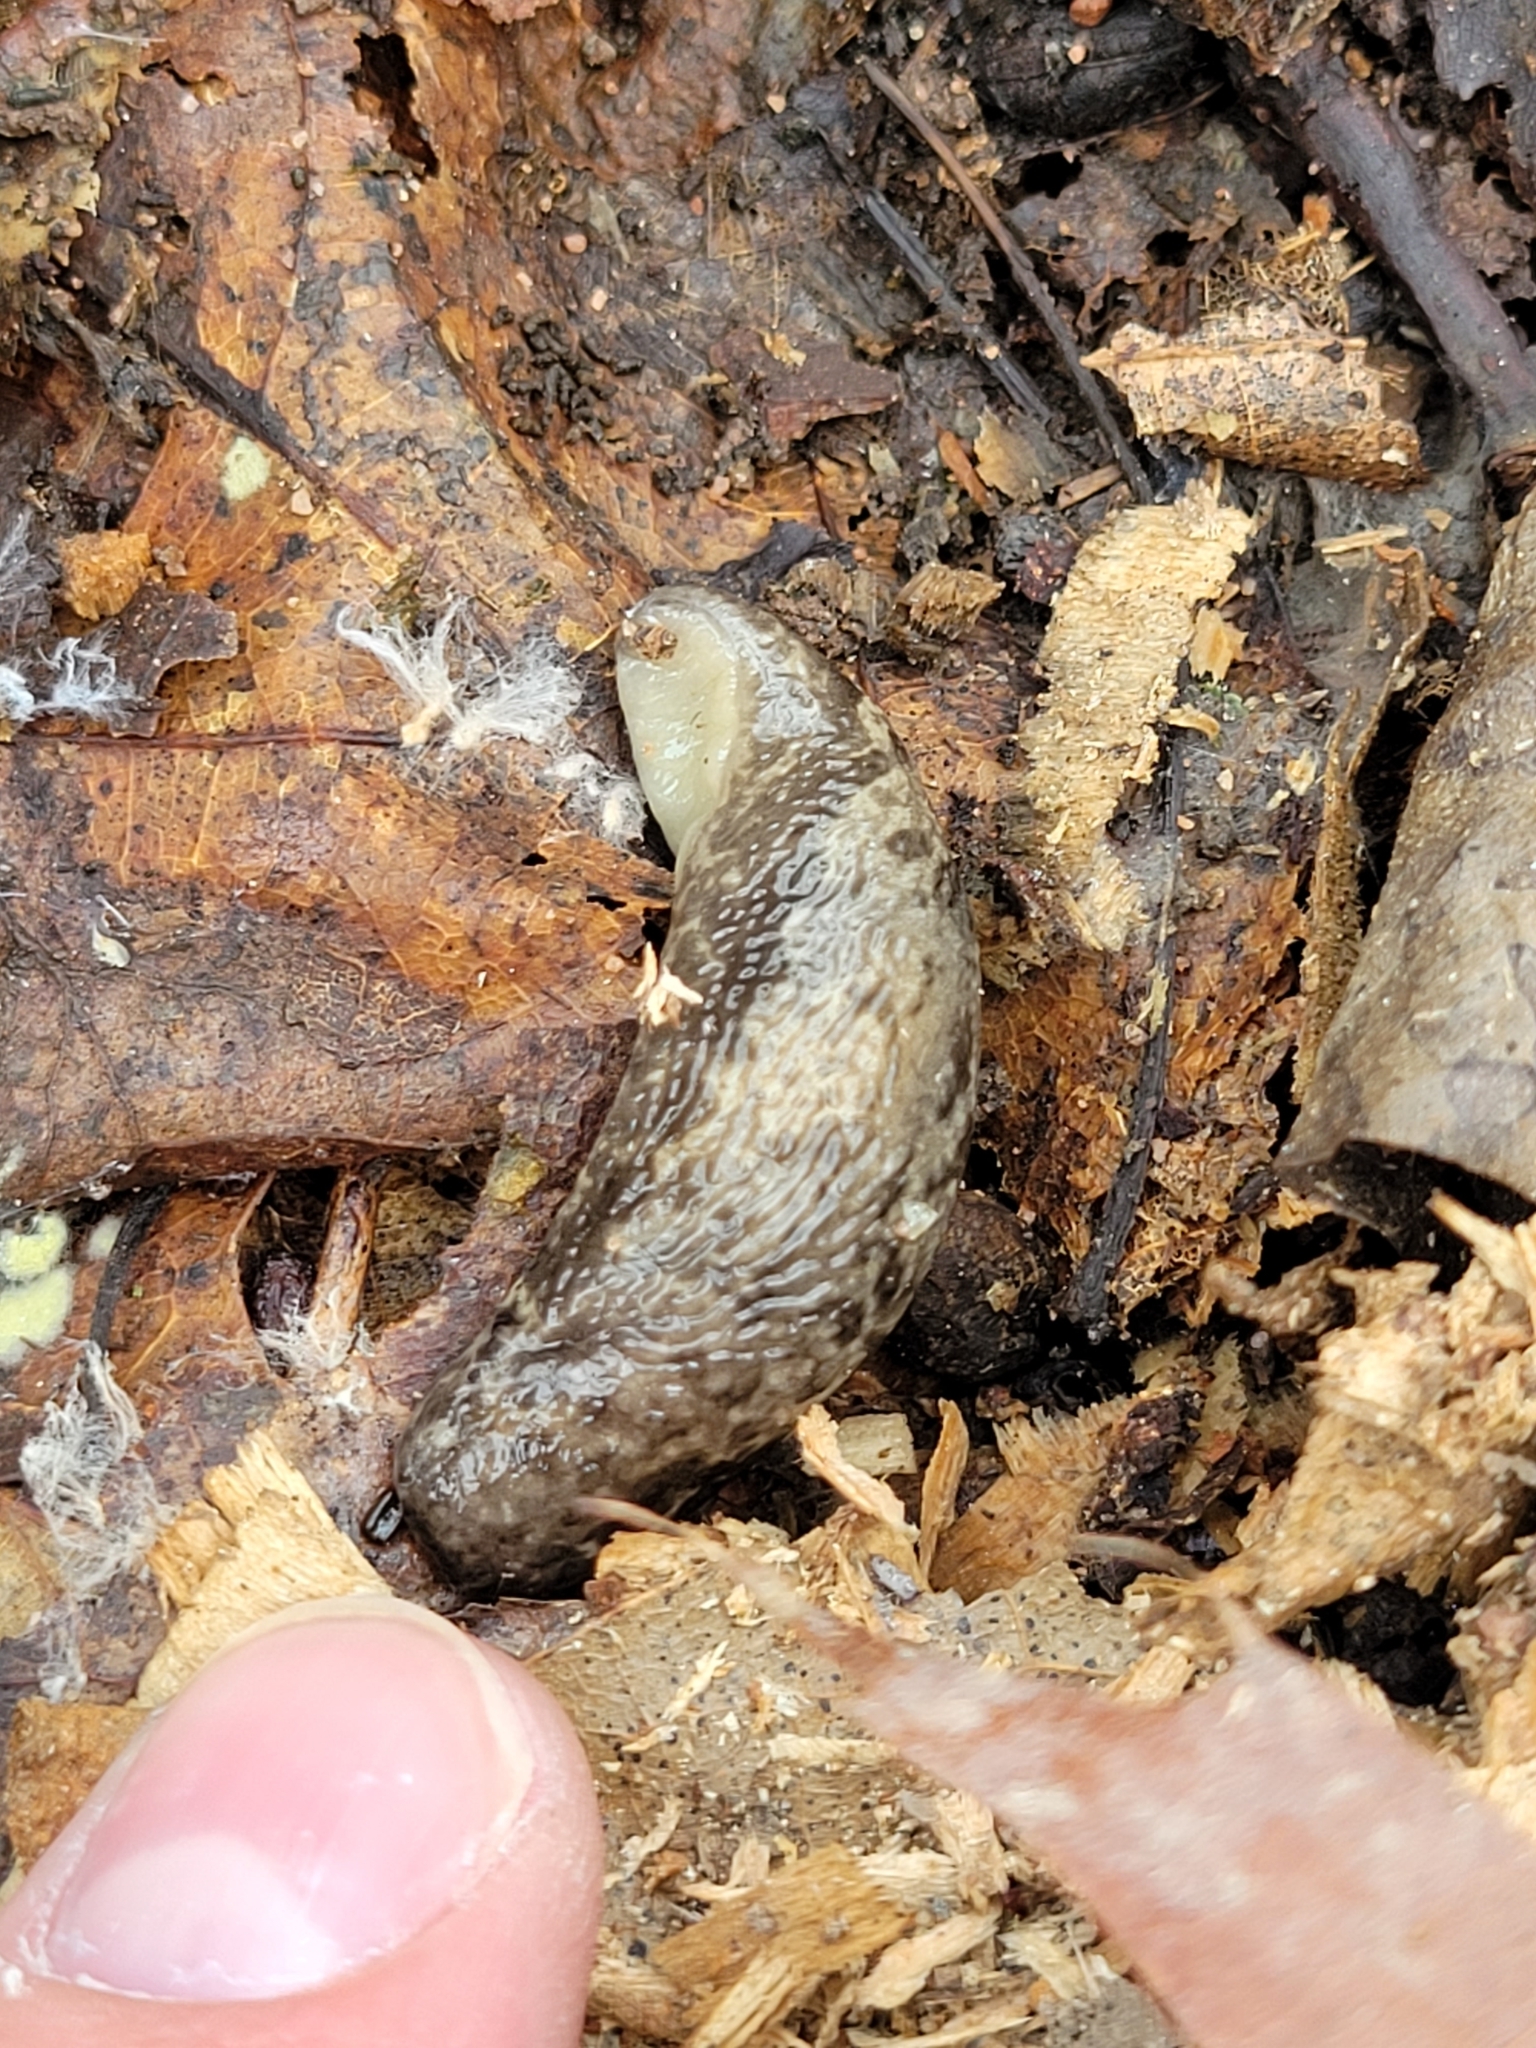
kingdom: Animalia
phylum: Mollusca
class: Gastropoda
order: Stylommatophora
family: Philomycidae
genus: Megapallifera
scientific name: Megapallifera mutabilis
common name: Changeable mantleslug
